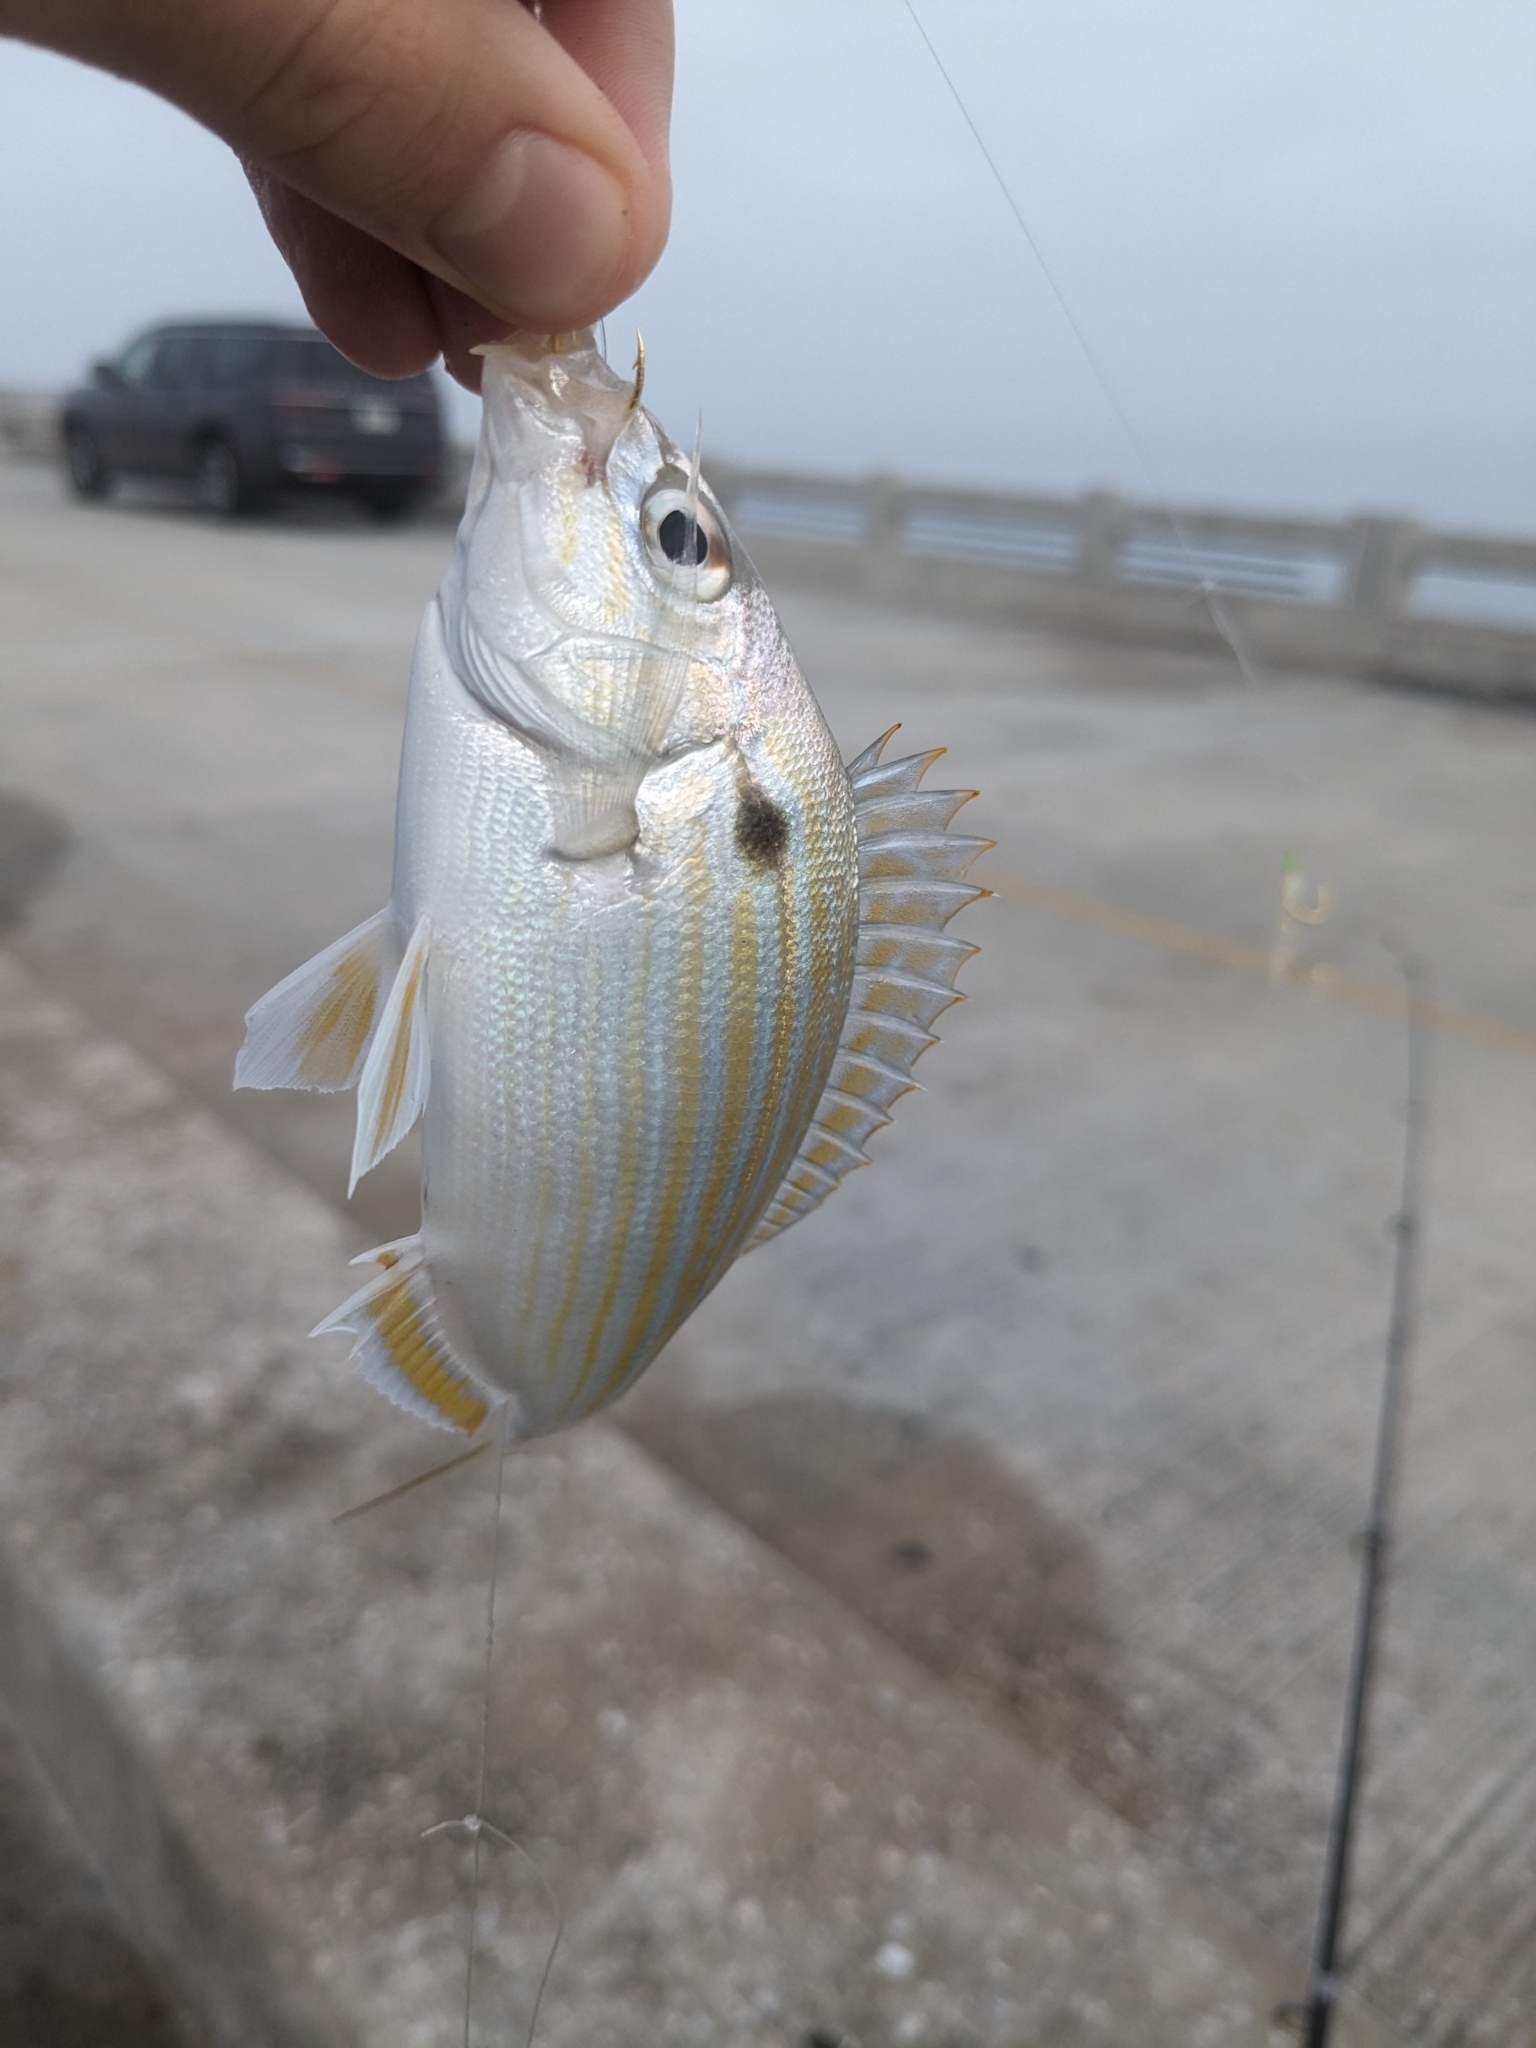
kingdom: Animalia
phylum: Chordata
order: Perciformes
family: Sparidae
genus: Lagodon
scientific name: Lagodon rhomboides
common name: Pinfish
